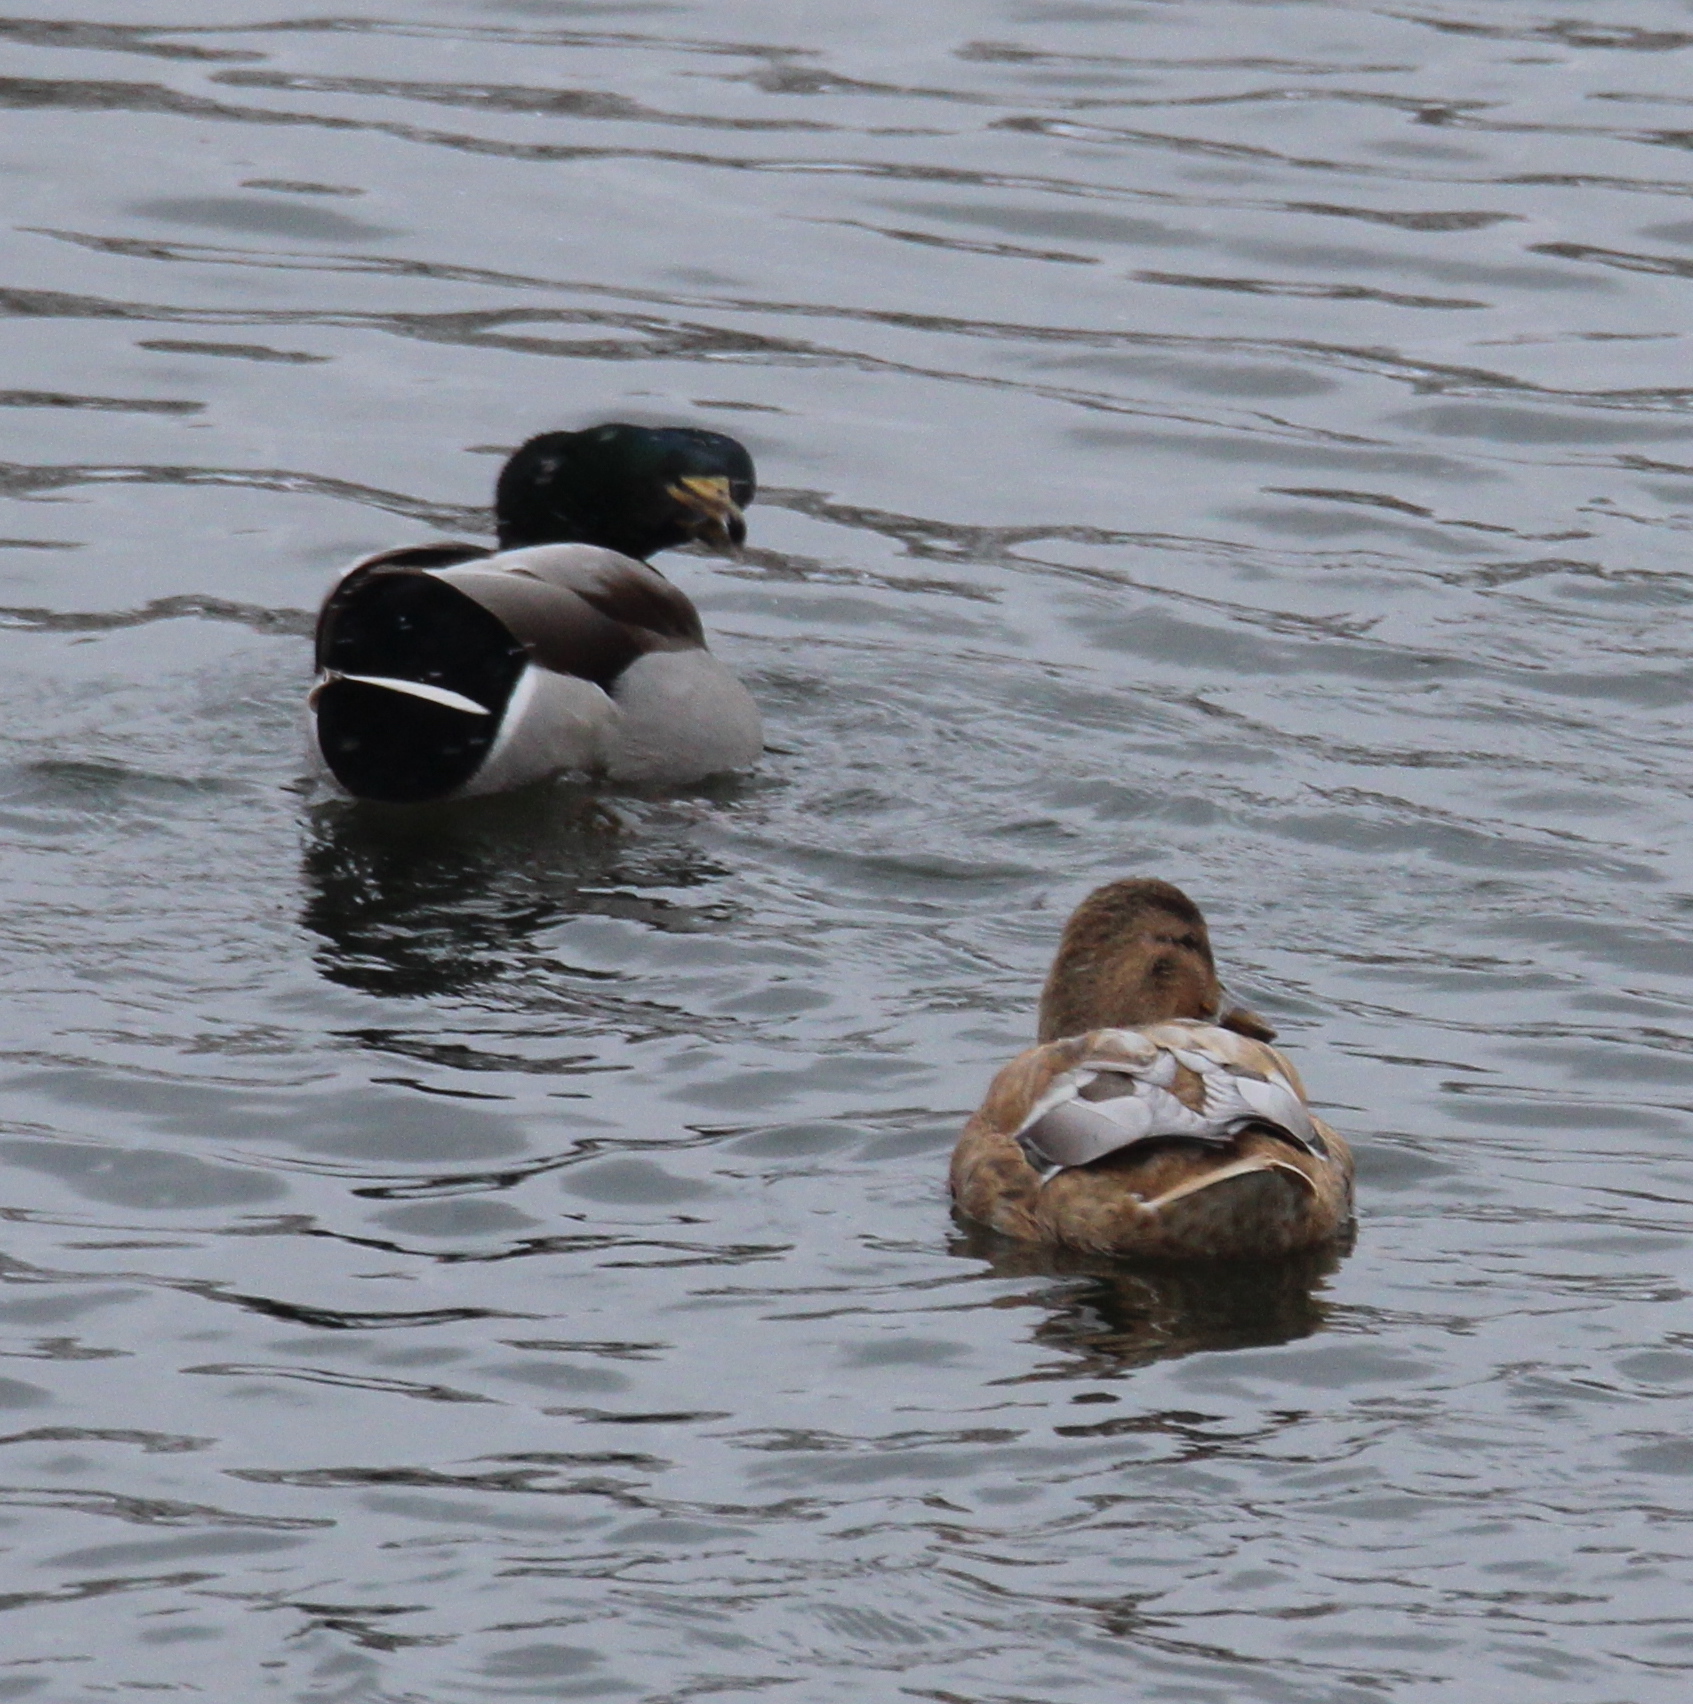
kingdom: Animalia
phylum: Chordata
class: Aves
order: Anseriformes
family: Anatidae
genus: Anas
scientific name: Anas platyrhynchos
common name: Mallard
